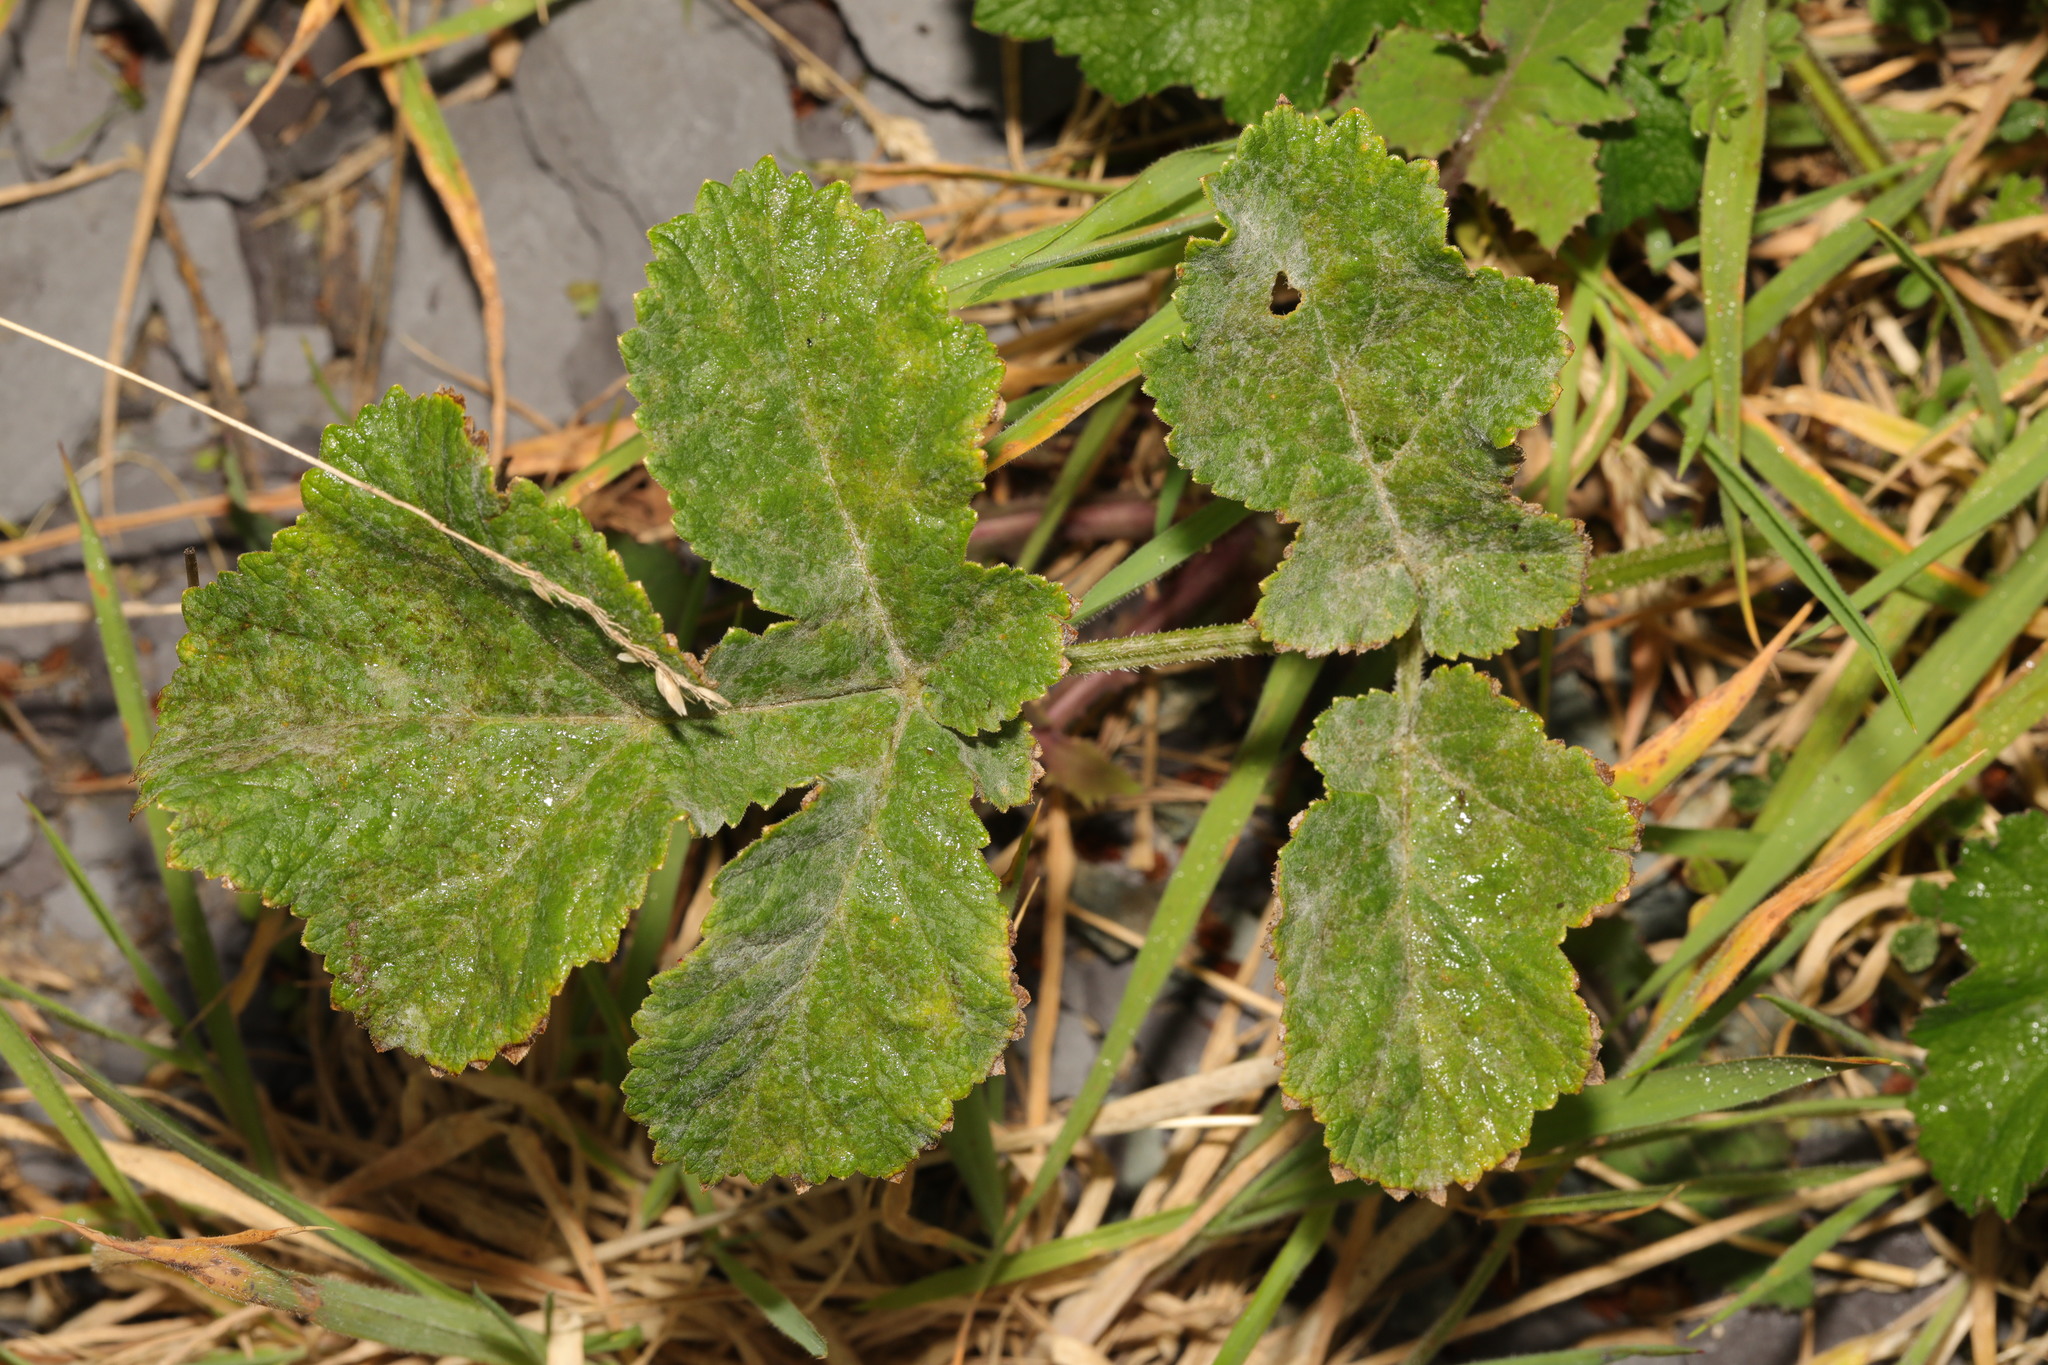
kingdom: Plantae
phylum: Tracheophyta
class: Magnoliopsida
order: Apiales
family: Apiaceae
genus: Heracleum
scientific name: Heracleum sphondylium
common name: Hogweed
